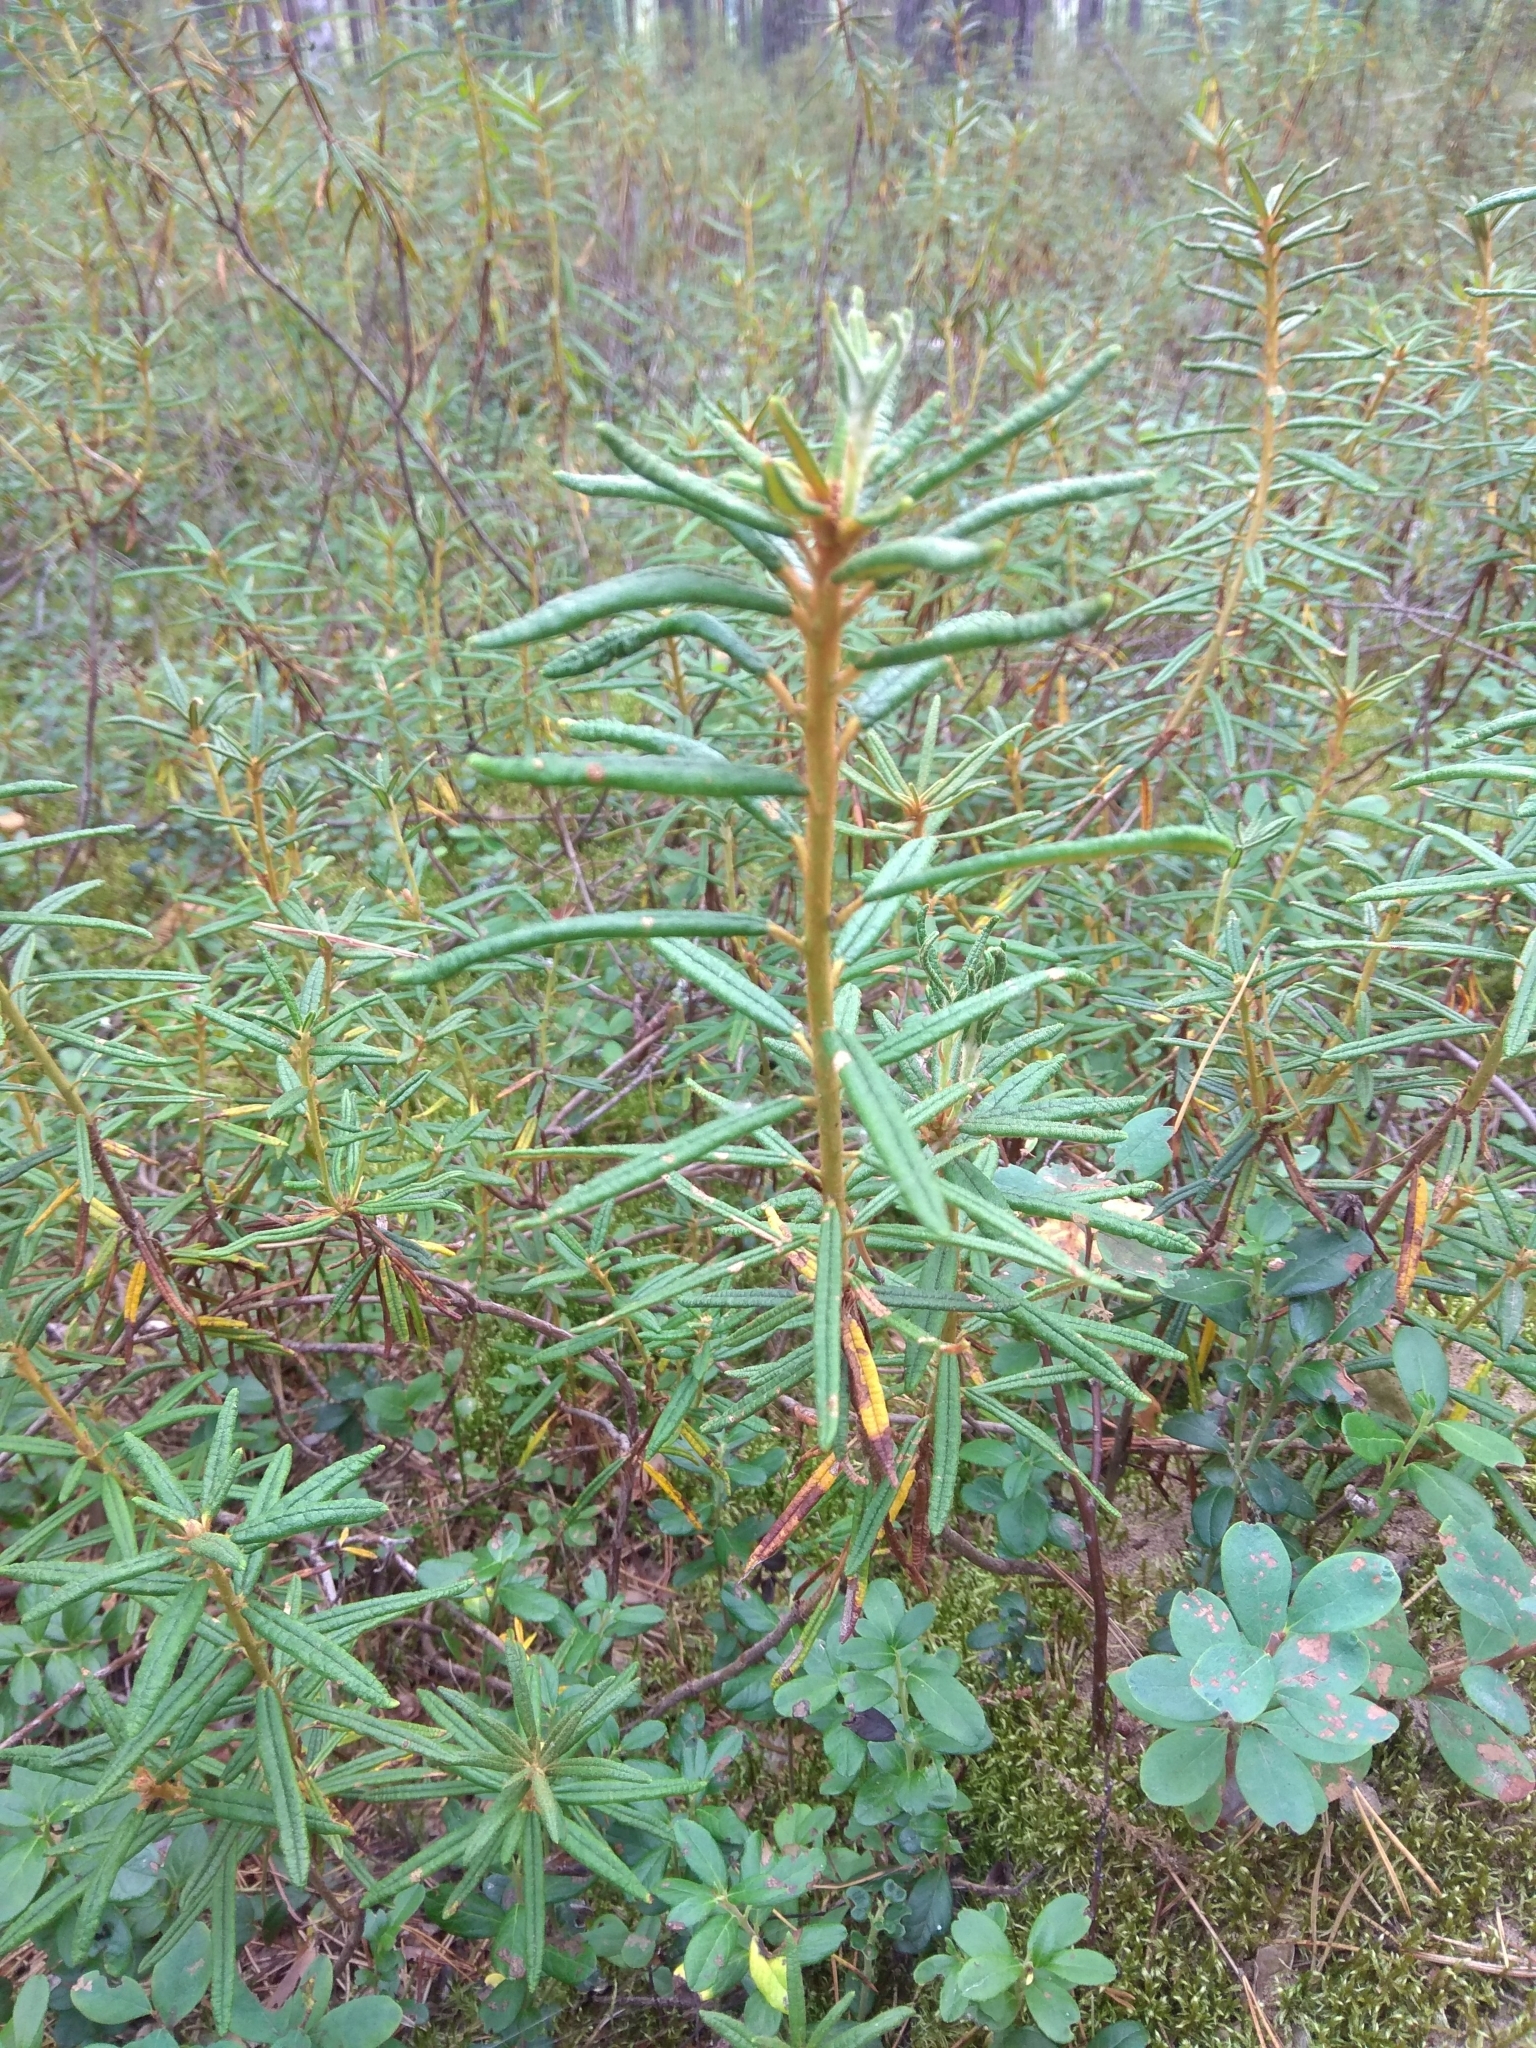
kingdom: Plantae
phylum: Tracheophyta
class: Magnoliopsida
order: Ericales
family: Ericaceae
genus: Rhododendron
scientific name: Rhododendron tomentosum
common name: Marsh labrador tea
